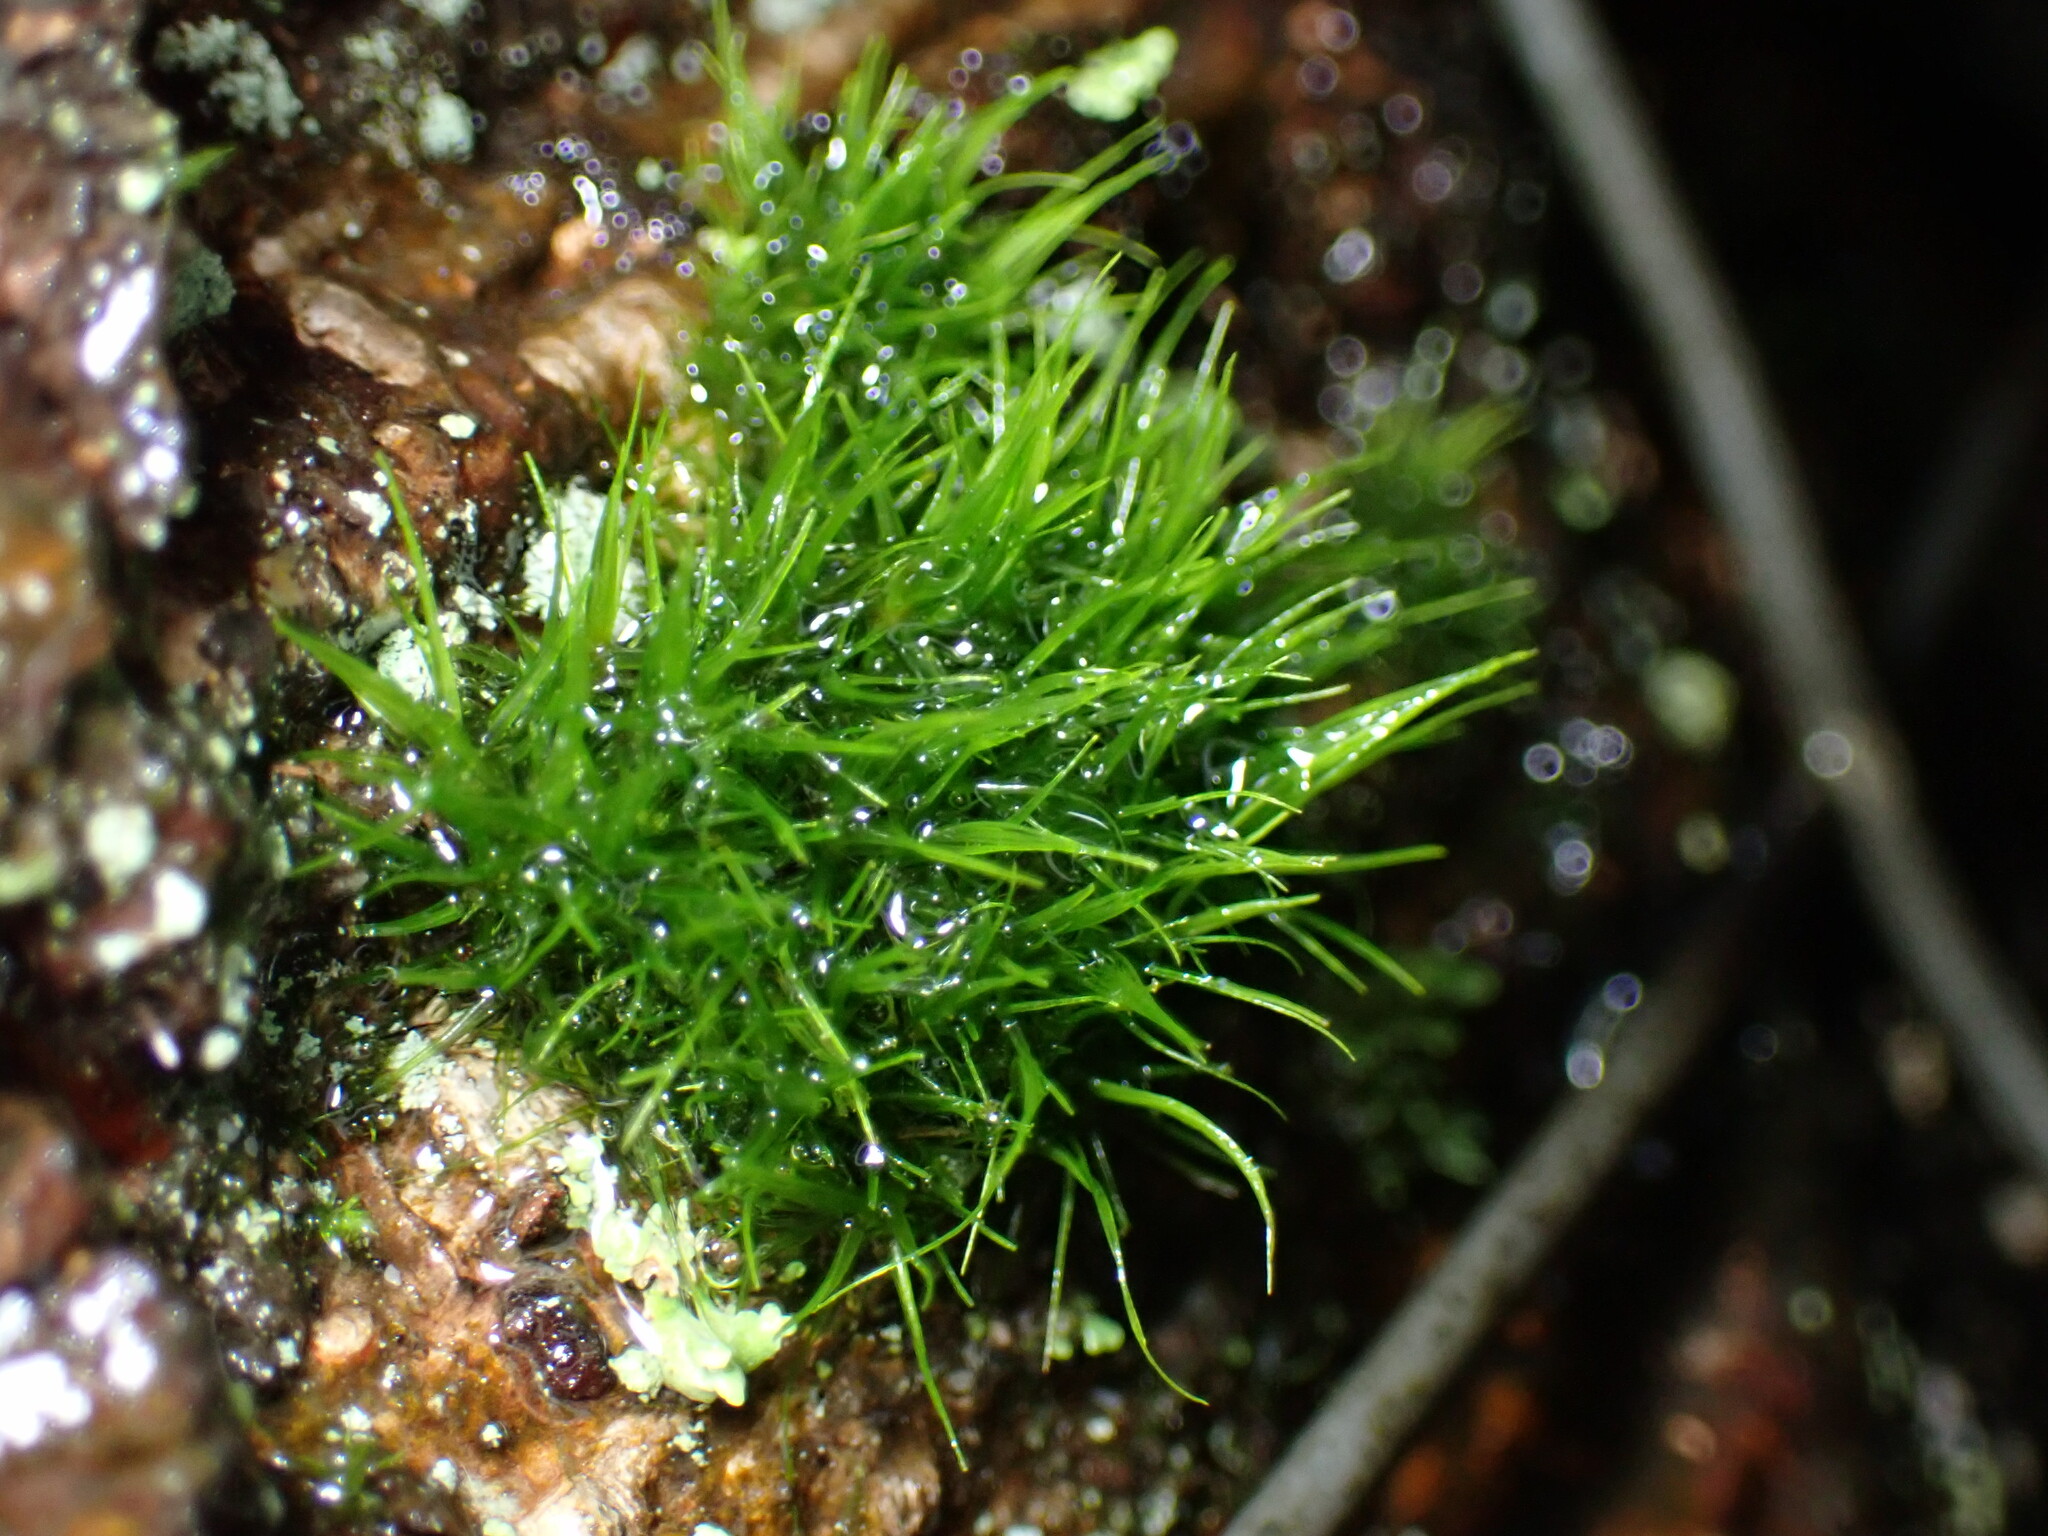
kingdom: Plantae
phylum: Bryophyta
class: Bryopsida
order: Dicranales
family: Dicranaceae
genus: Orthodicranum
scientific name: Orthodicranum tauricum
